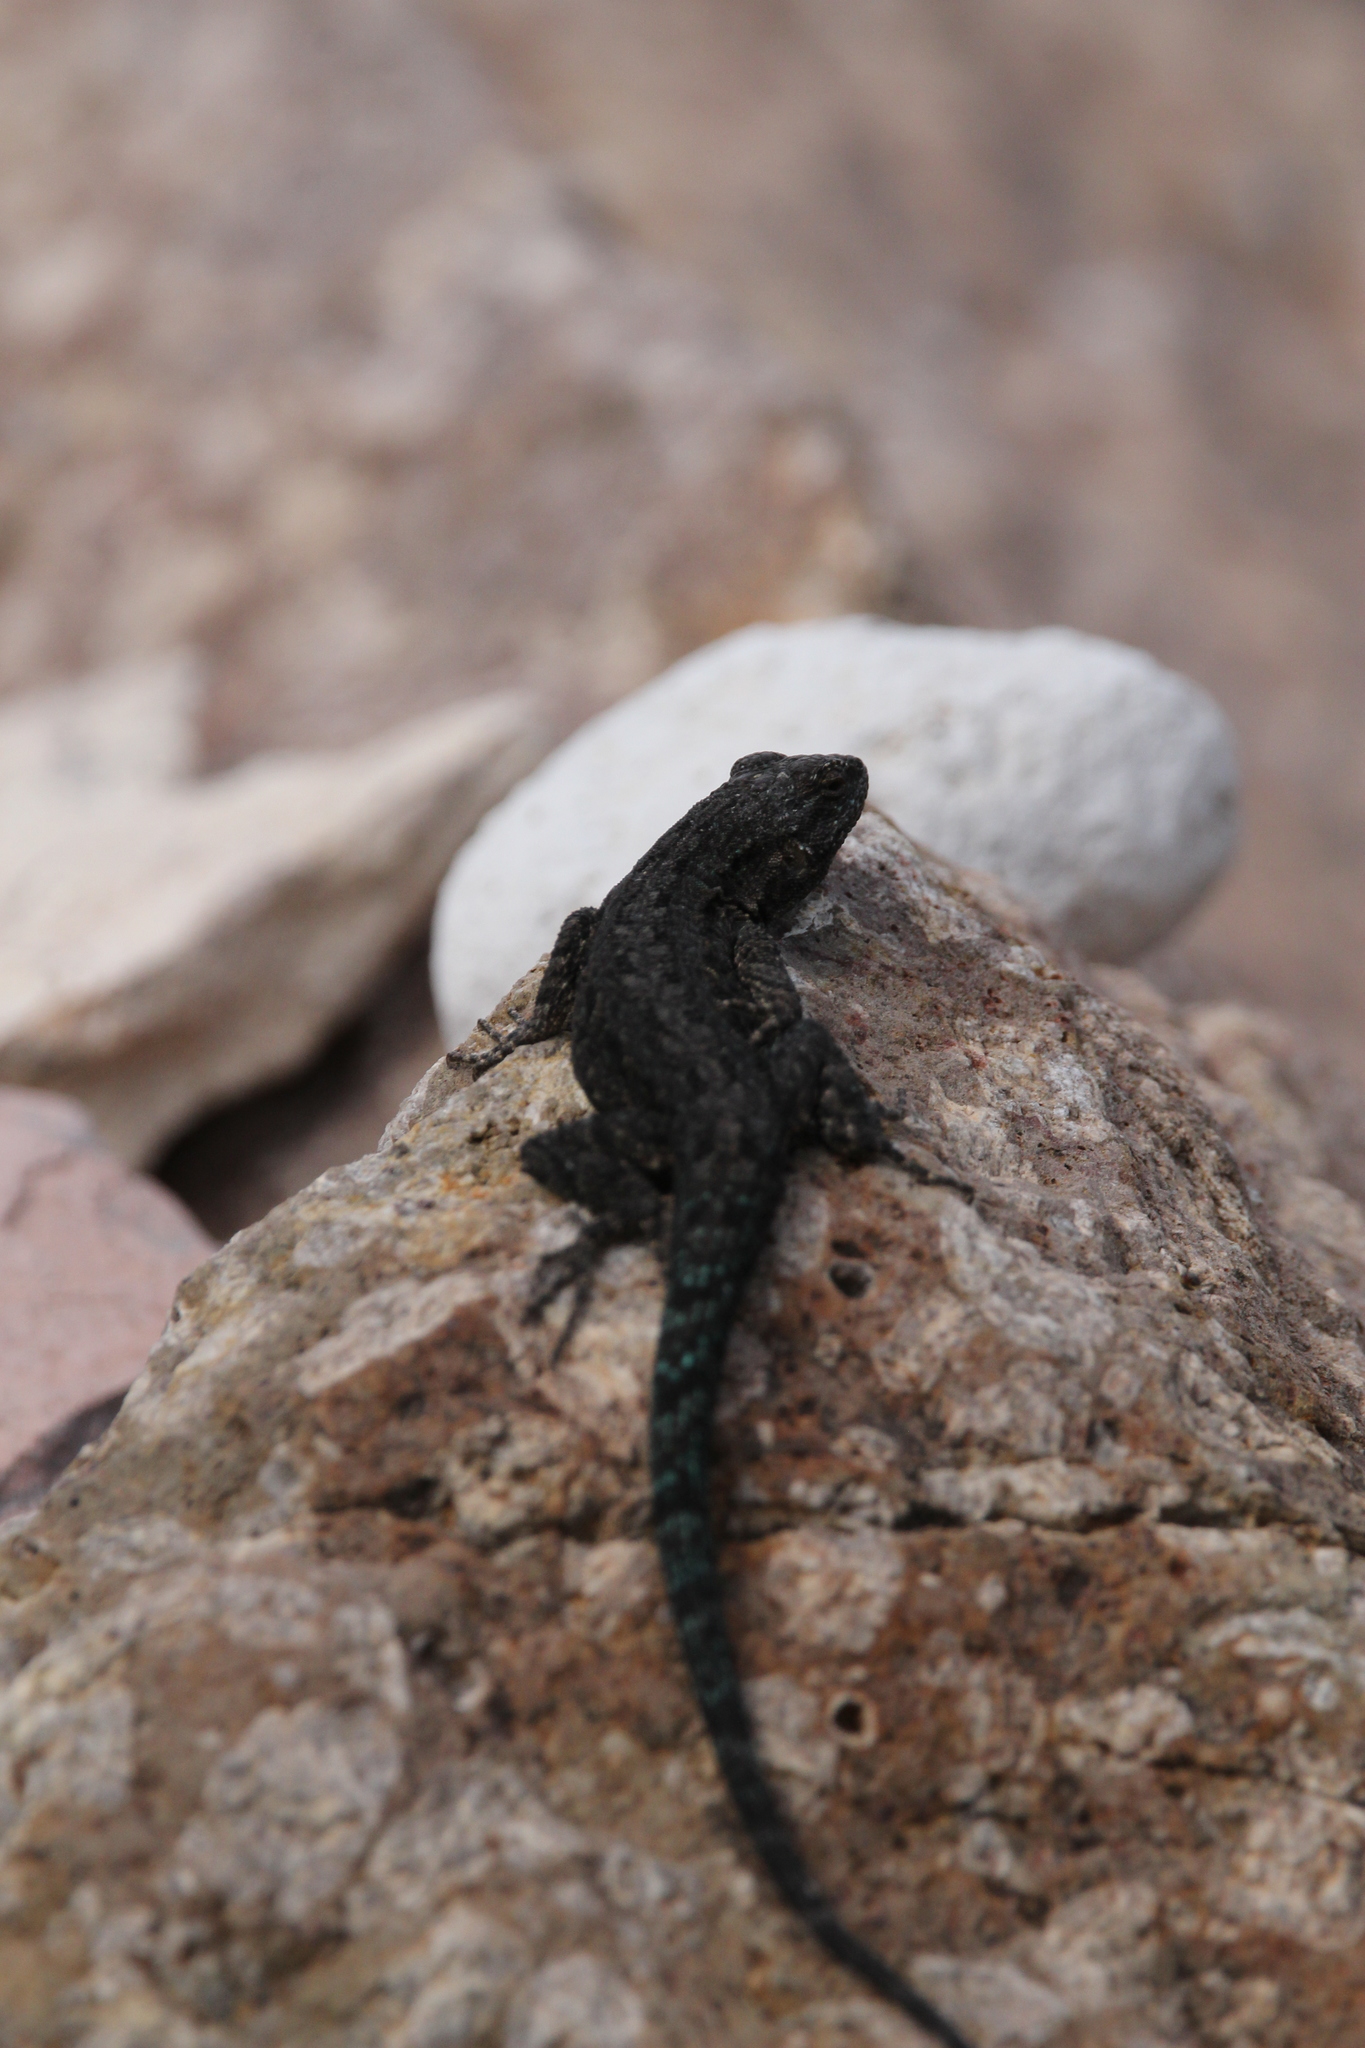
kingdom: Animalia
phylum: Chordata
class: Squamata
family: Phrynosomatidae
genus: Urosaurus
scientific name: Urosaurus ornatus
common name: Ornate tree lizard
